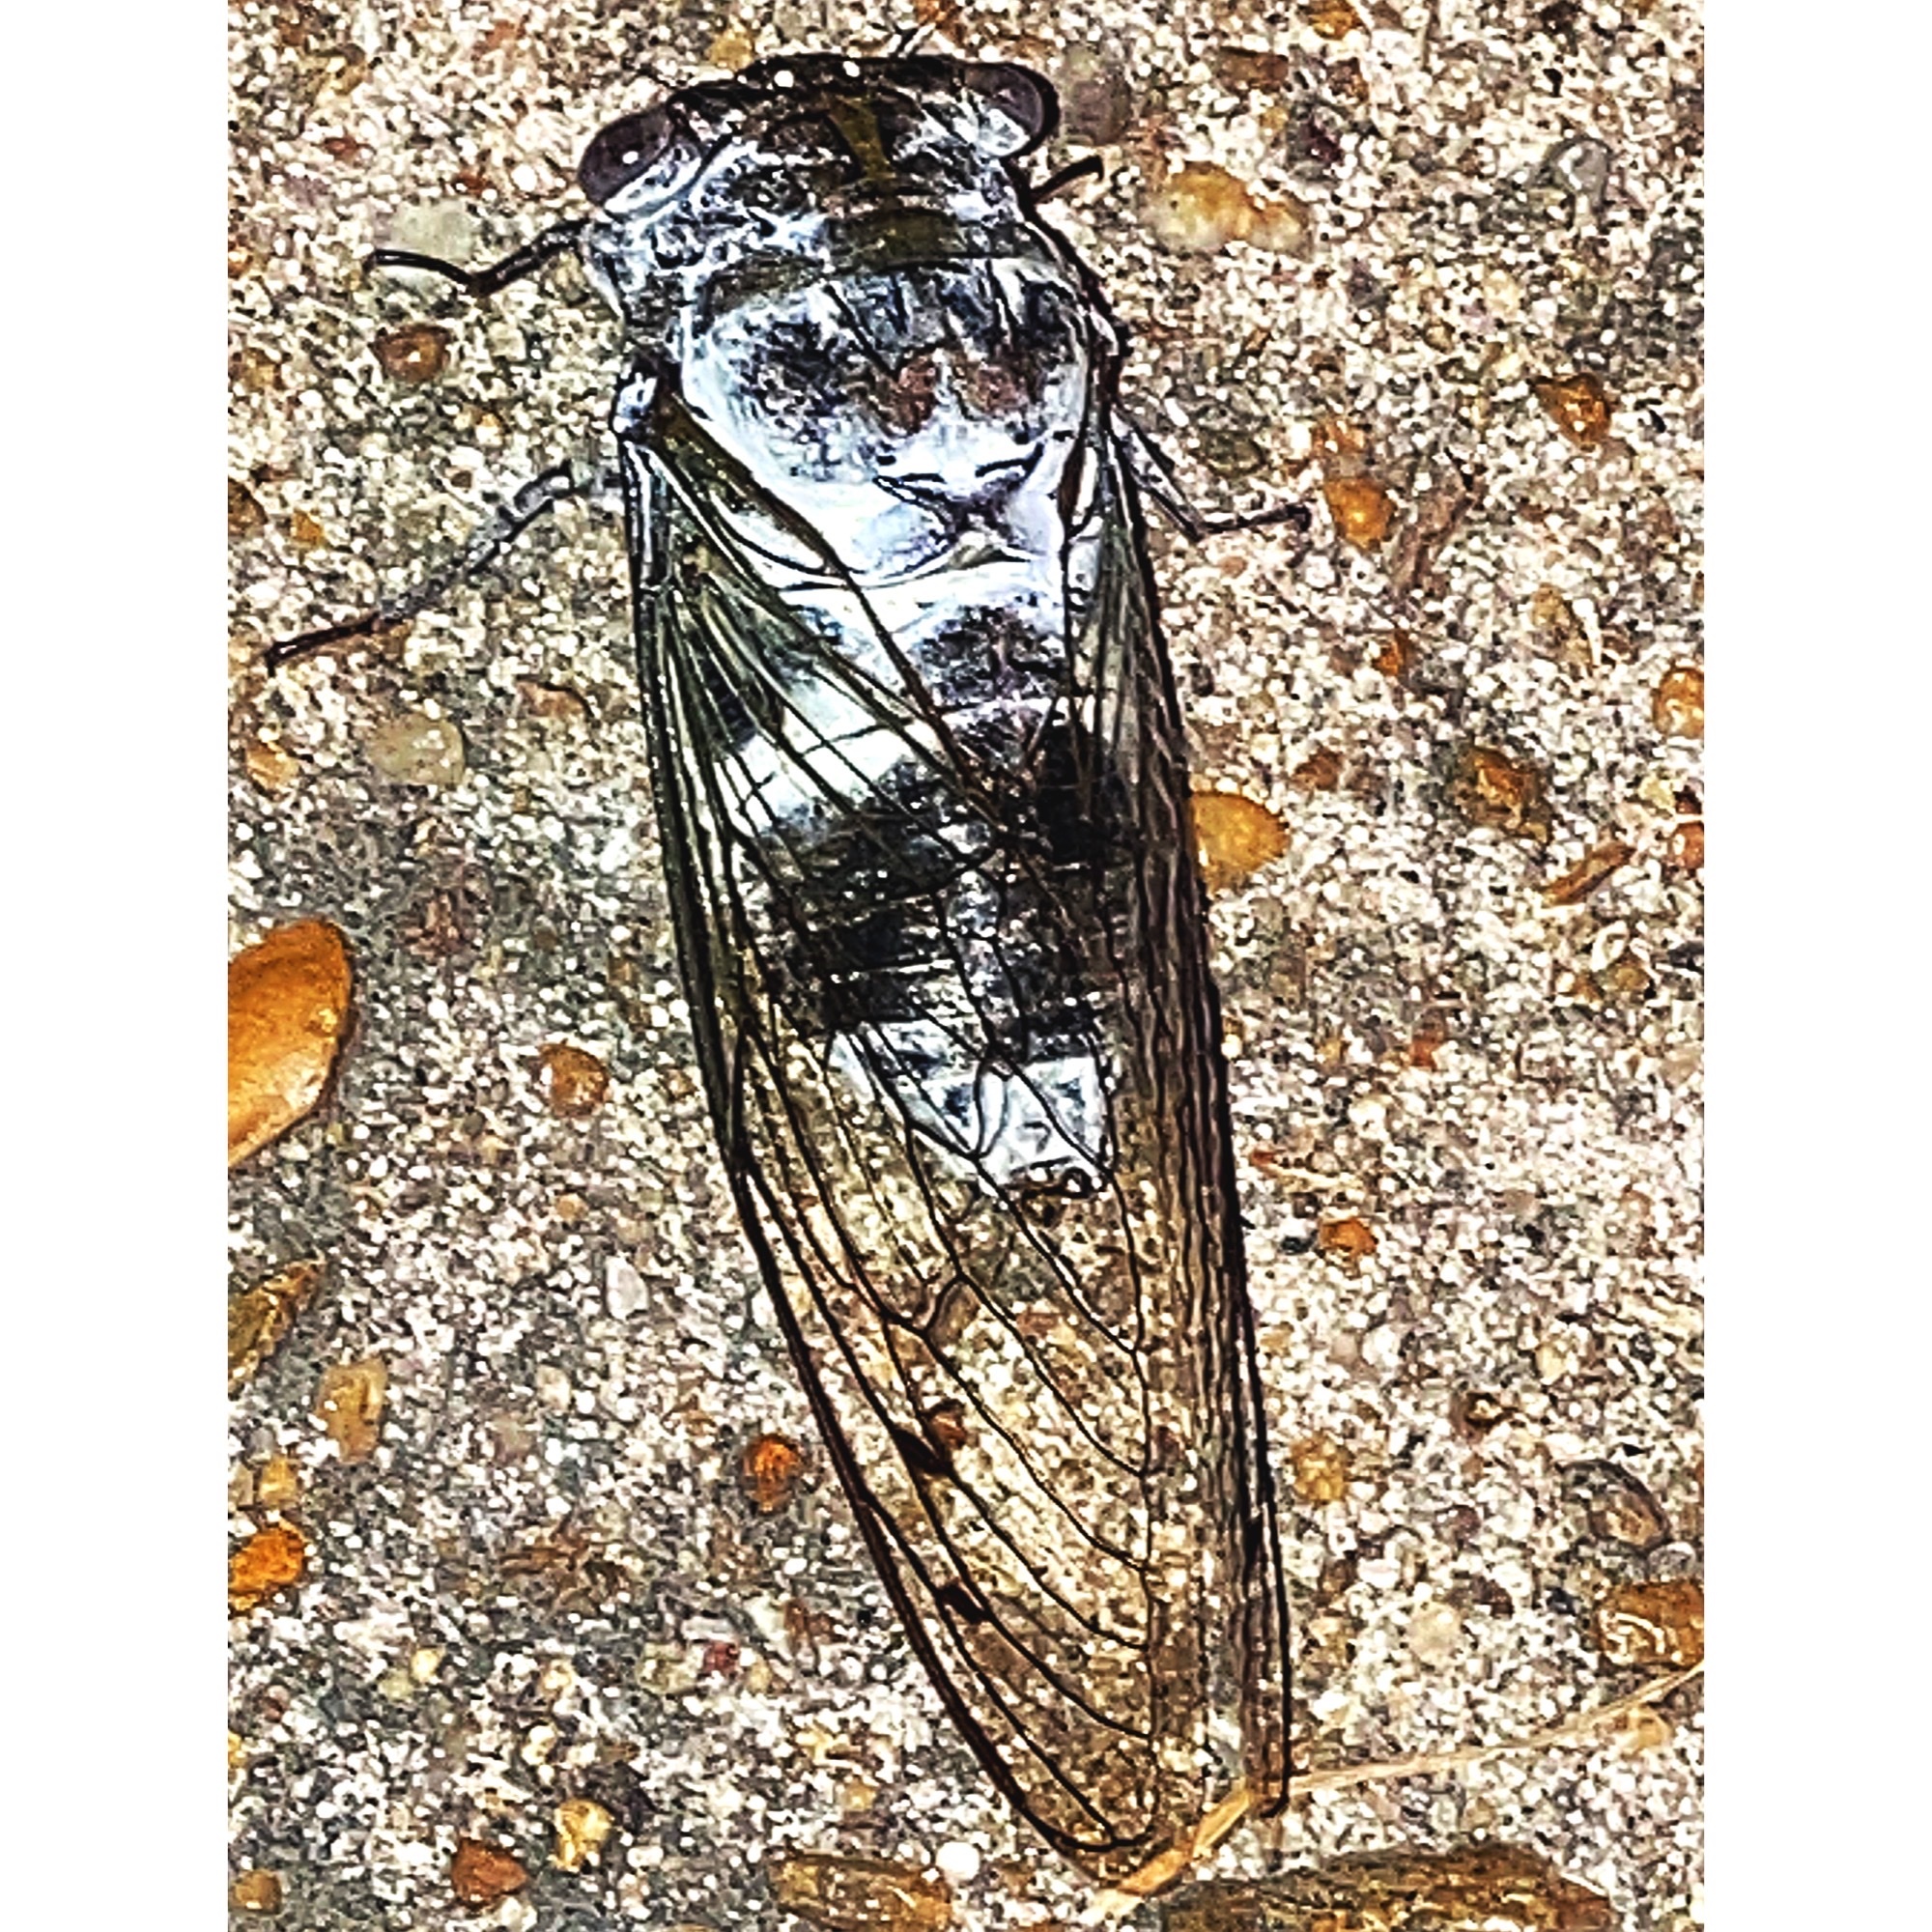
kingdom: Animalia
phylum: Arthropoda
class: Insecta
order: Hemiptera
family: Cicadidae
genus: Diceroprocta
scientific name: Diceroprocta grossa
